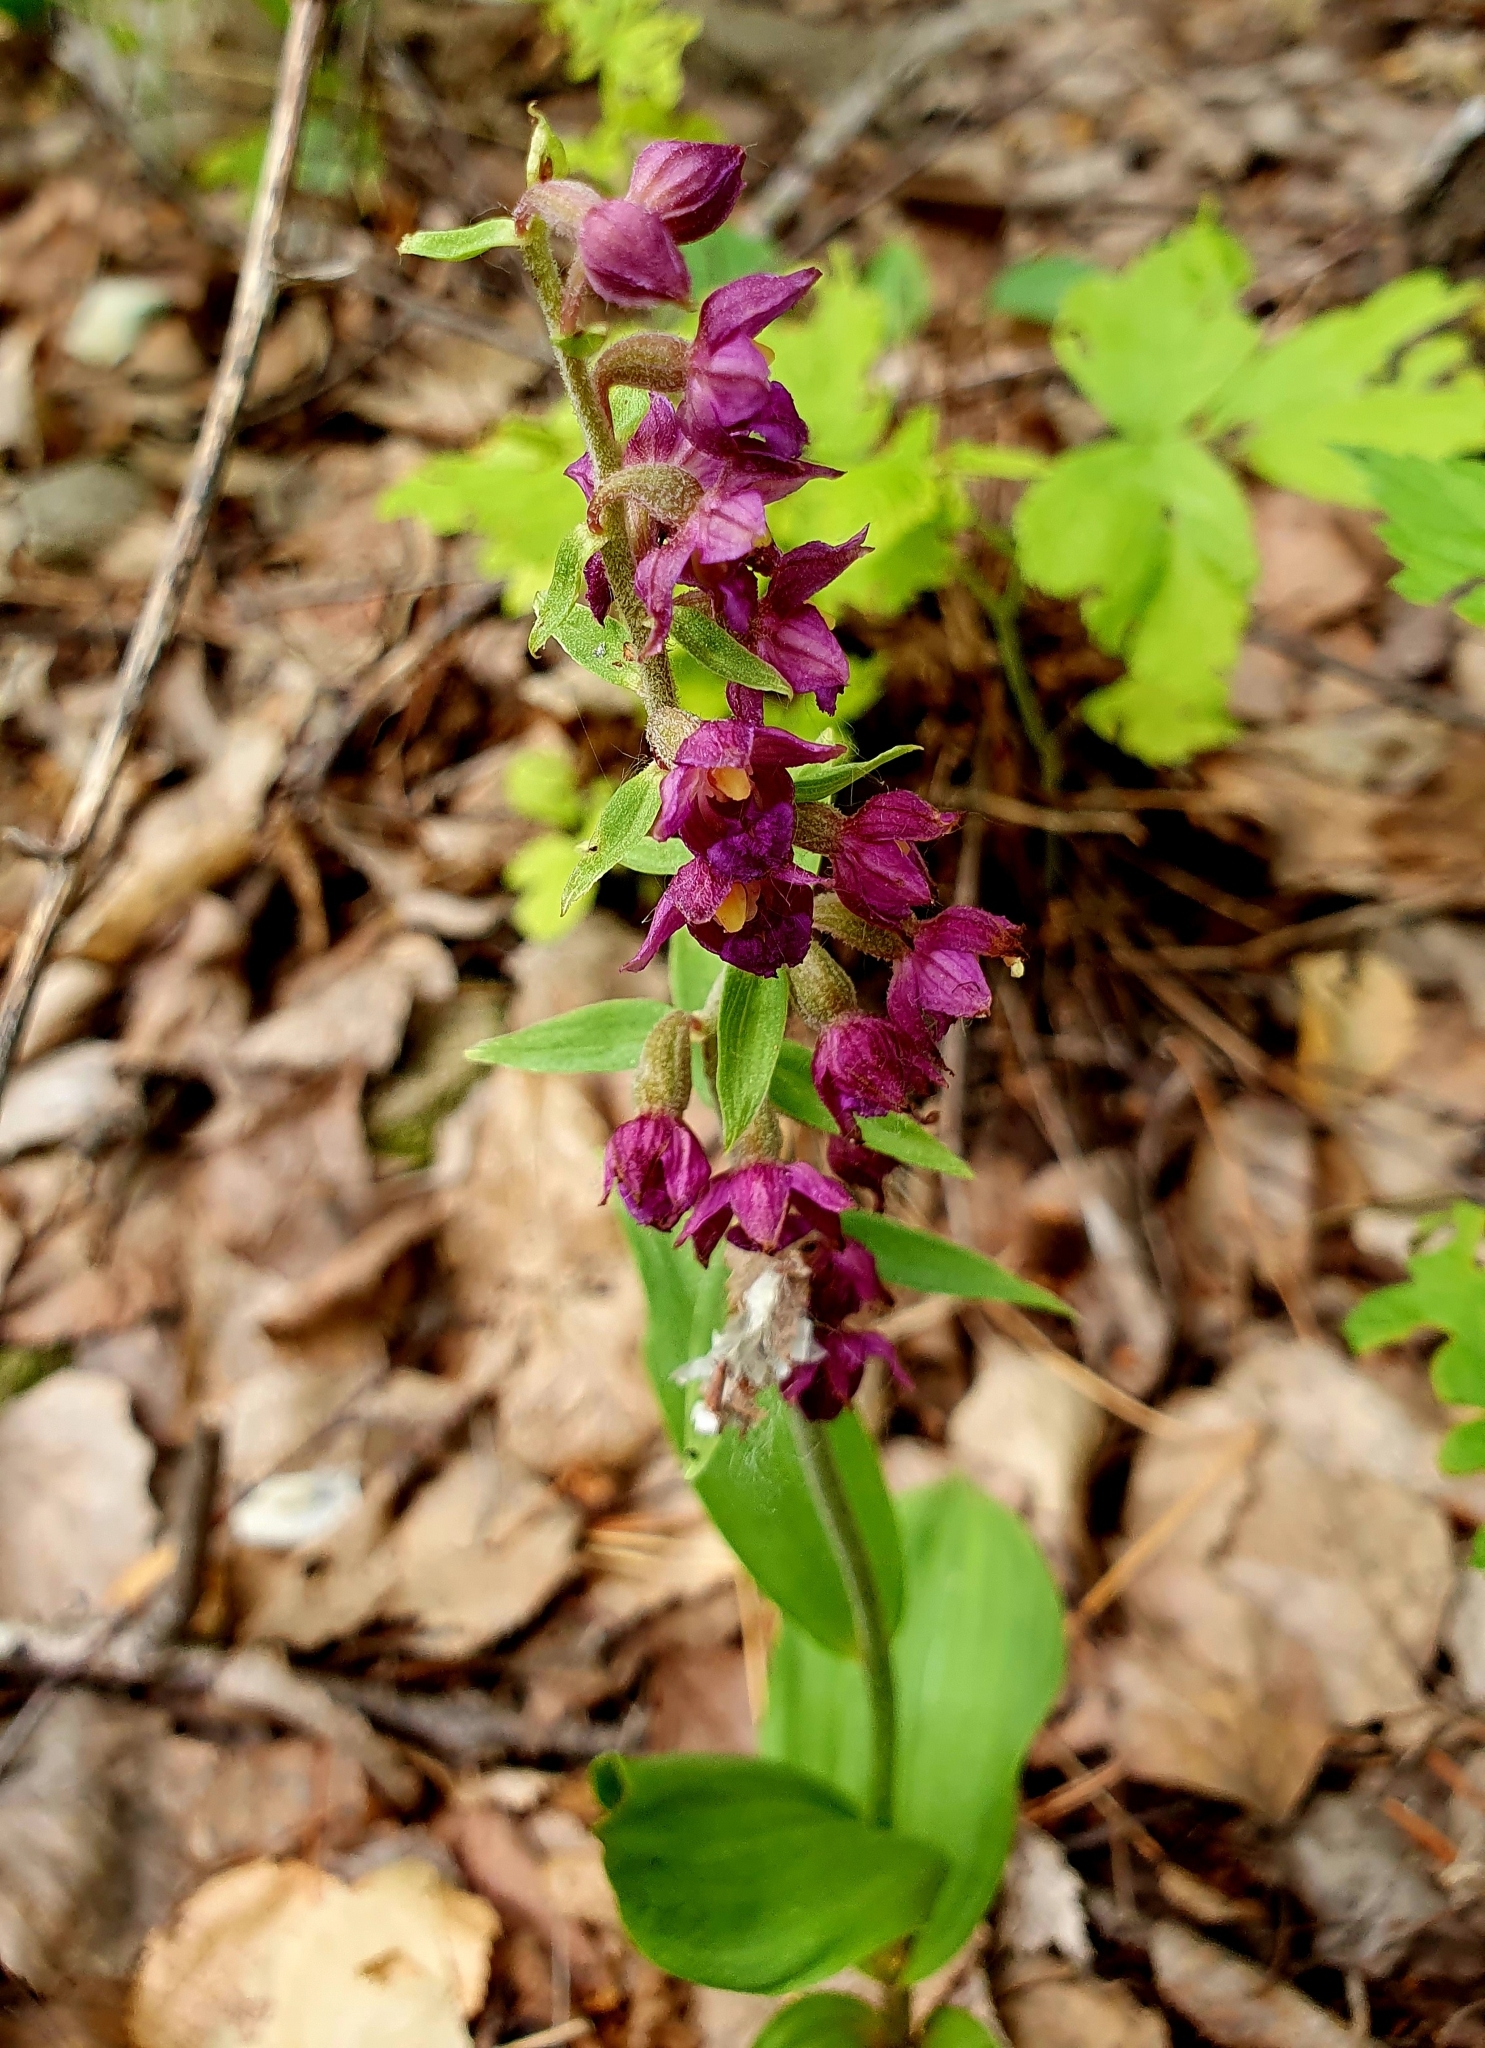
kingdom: Plantae
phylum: Tracheophyta
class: Liliopsida
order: Asparagales
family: Orchidaceae
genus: Epipactis
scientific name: Epipactis atrorubens
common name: Dark-red helleborine
